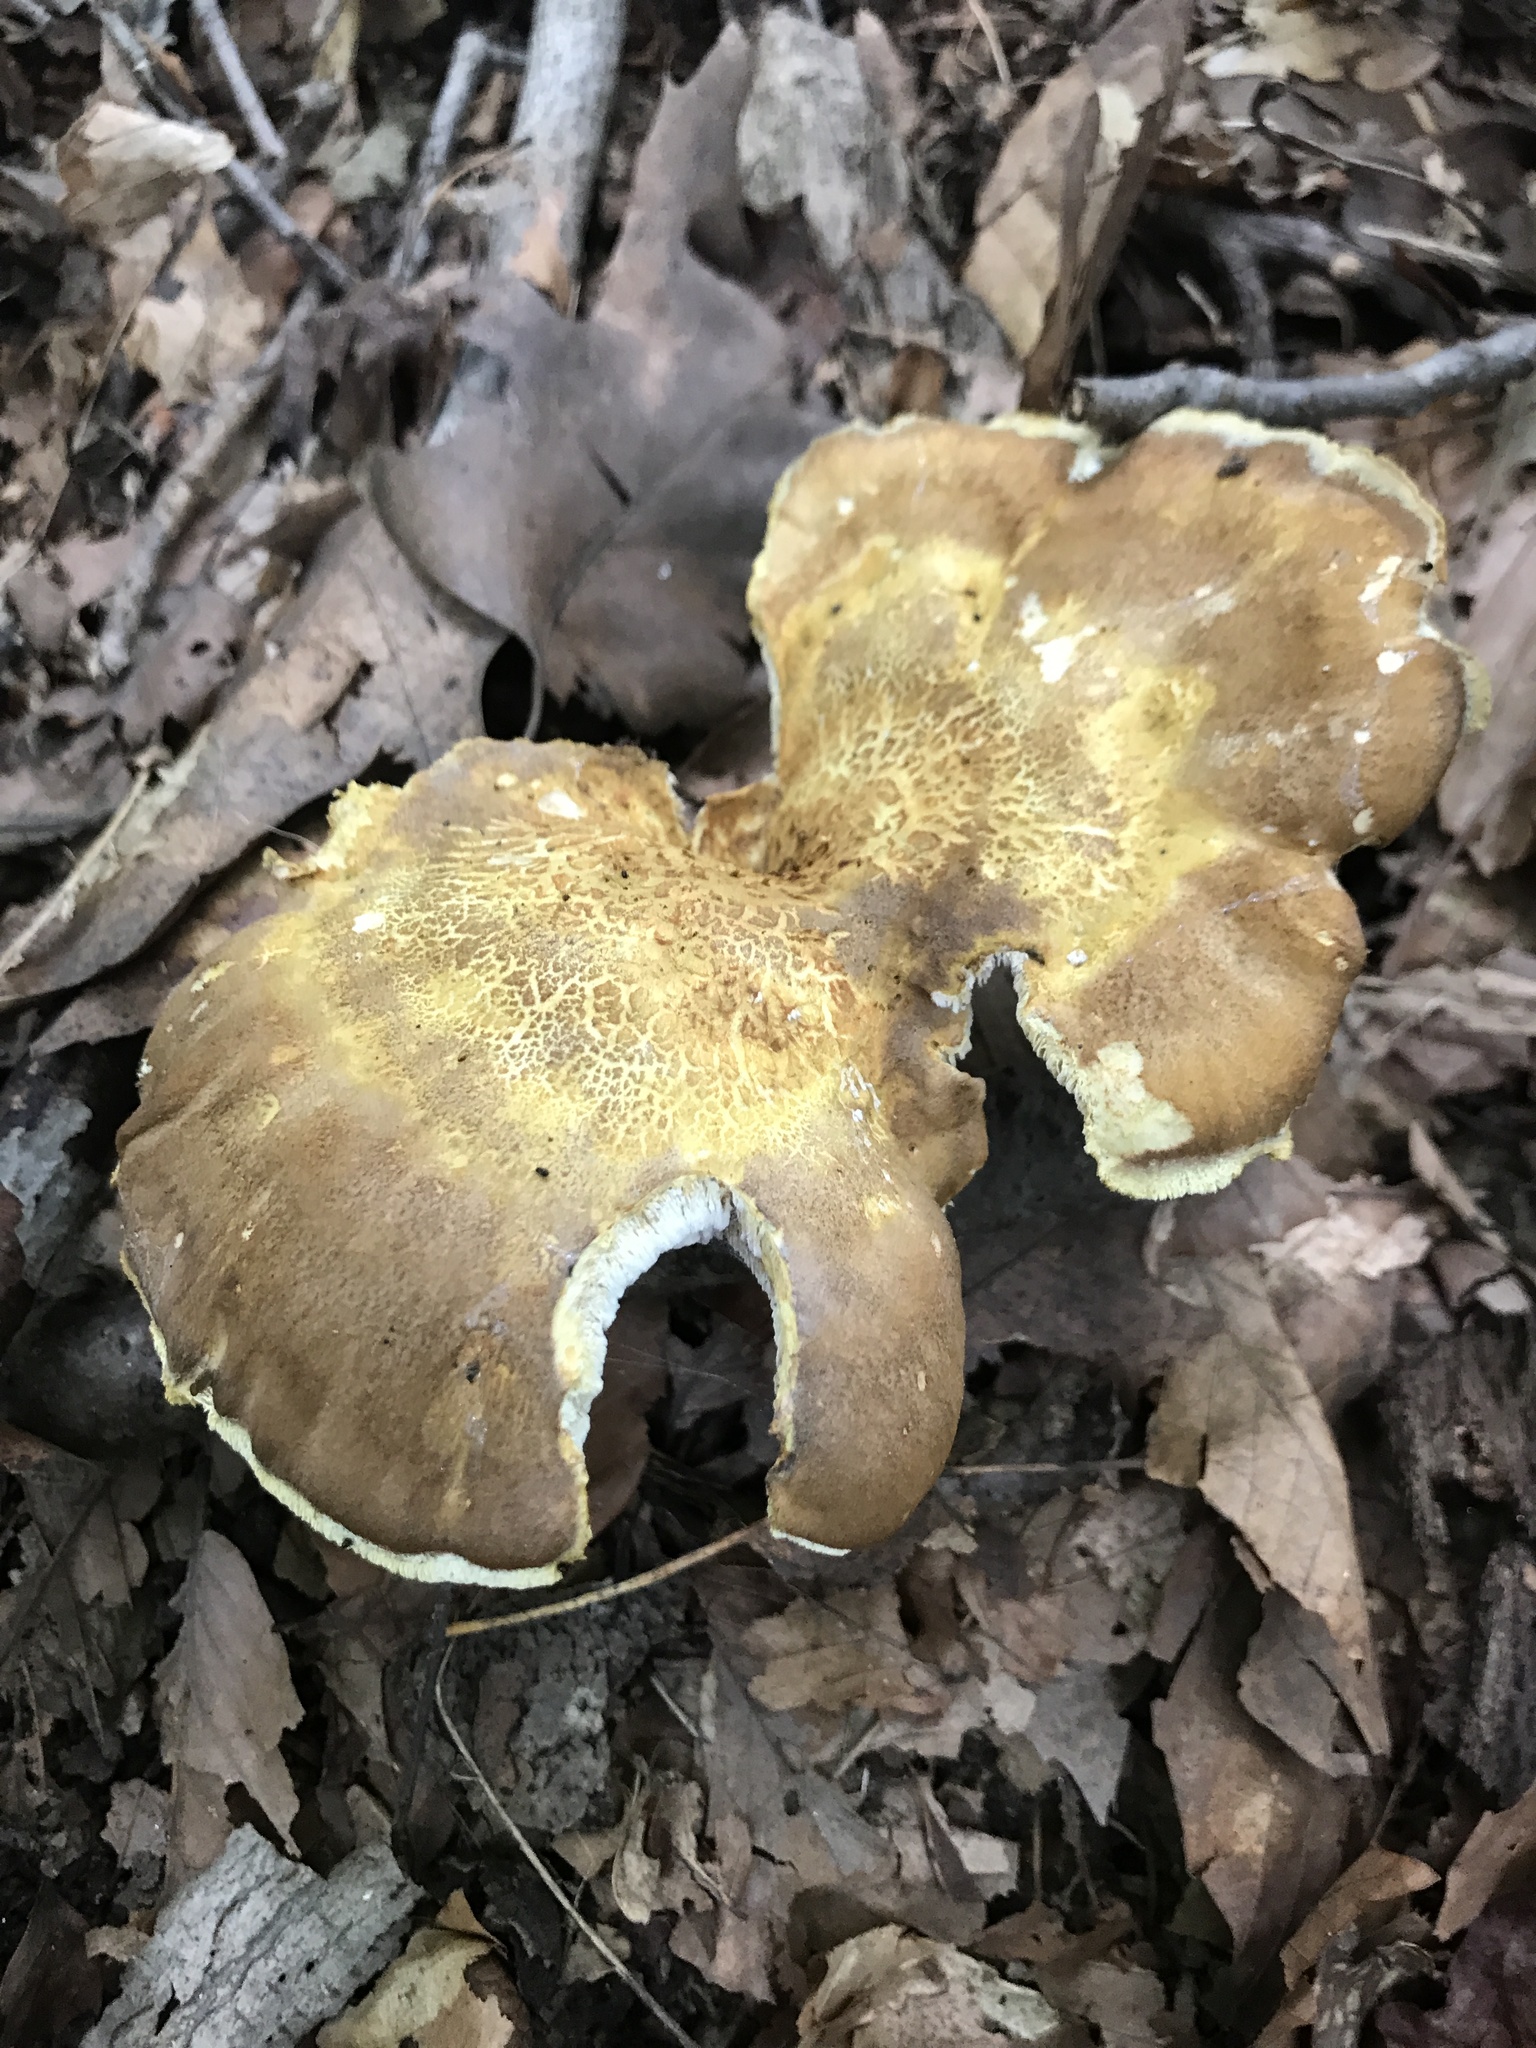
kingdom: Fungi
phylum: Basidiomycota
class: Agaricomycetes
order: Russulales
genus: Laeticutis
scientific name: Laeticutis cristata
